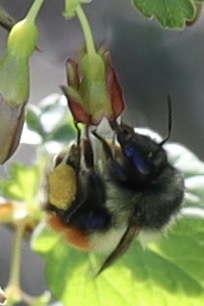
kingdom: Animalia
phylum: Arthropoda
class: Insecta
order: Hymenoptera
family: Apidae
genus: Bombus
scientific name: Bombus melanopygus
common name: Black tail bumble bee
